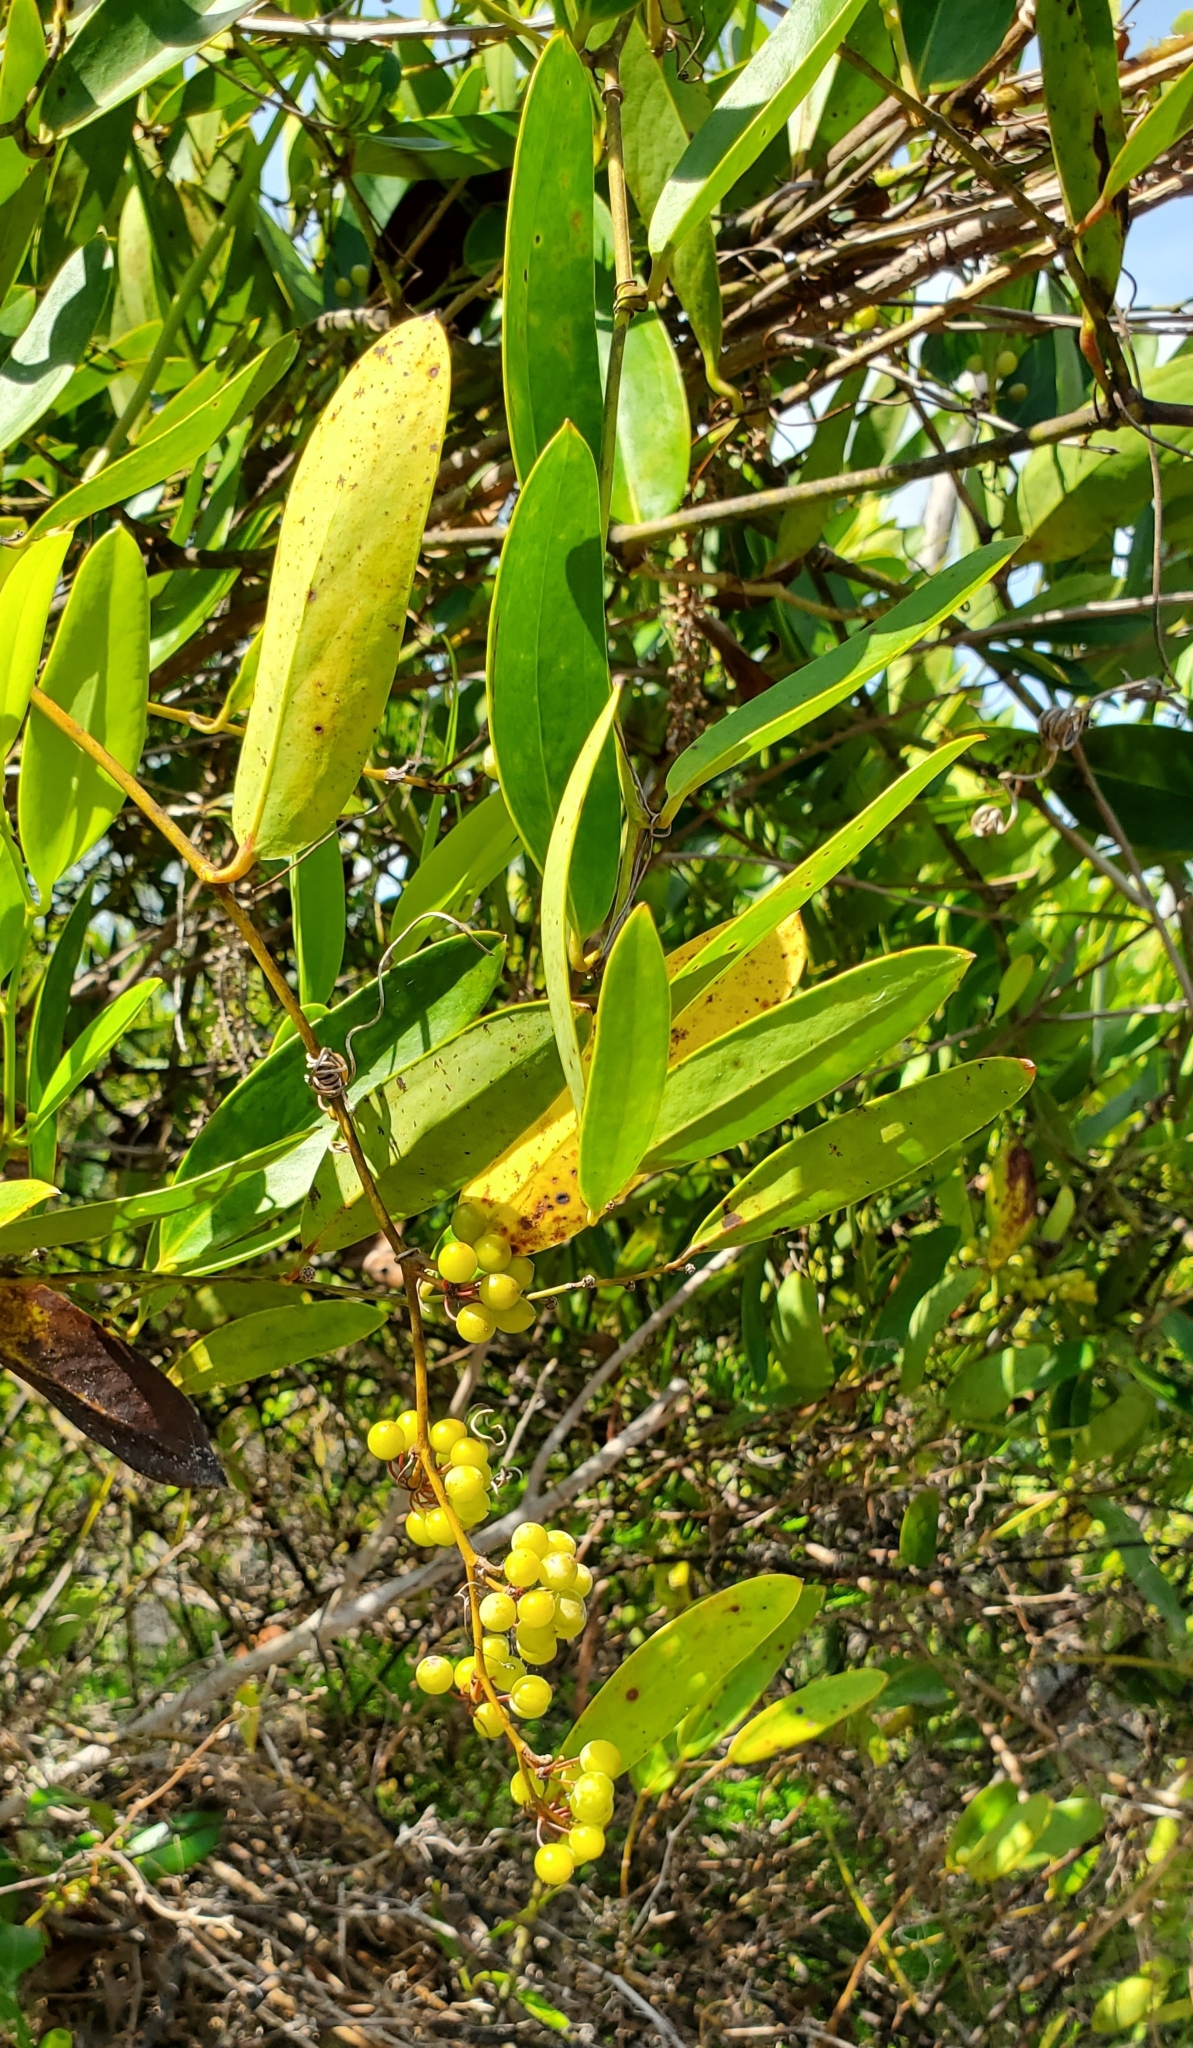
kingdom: Plantae
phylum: Tracheophyta
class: Liliopsida
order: Liliales
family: Smilacaceae
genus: Smilax
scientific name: Smilax laurifolia
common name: Bamboovine
